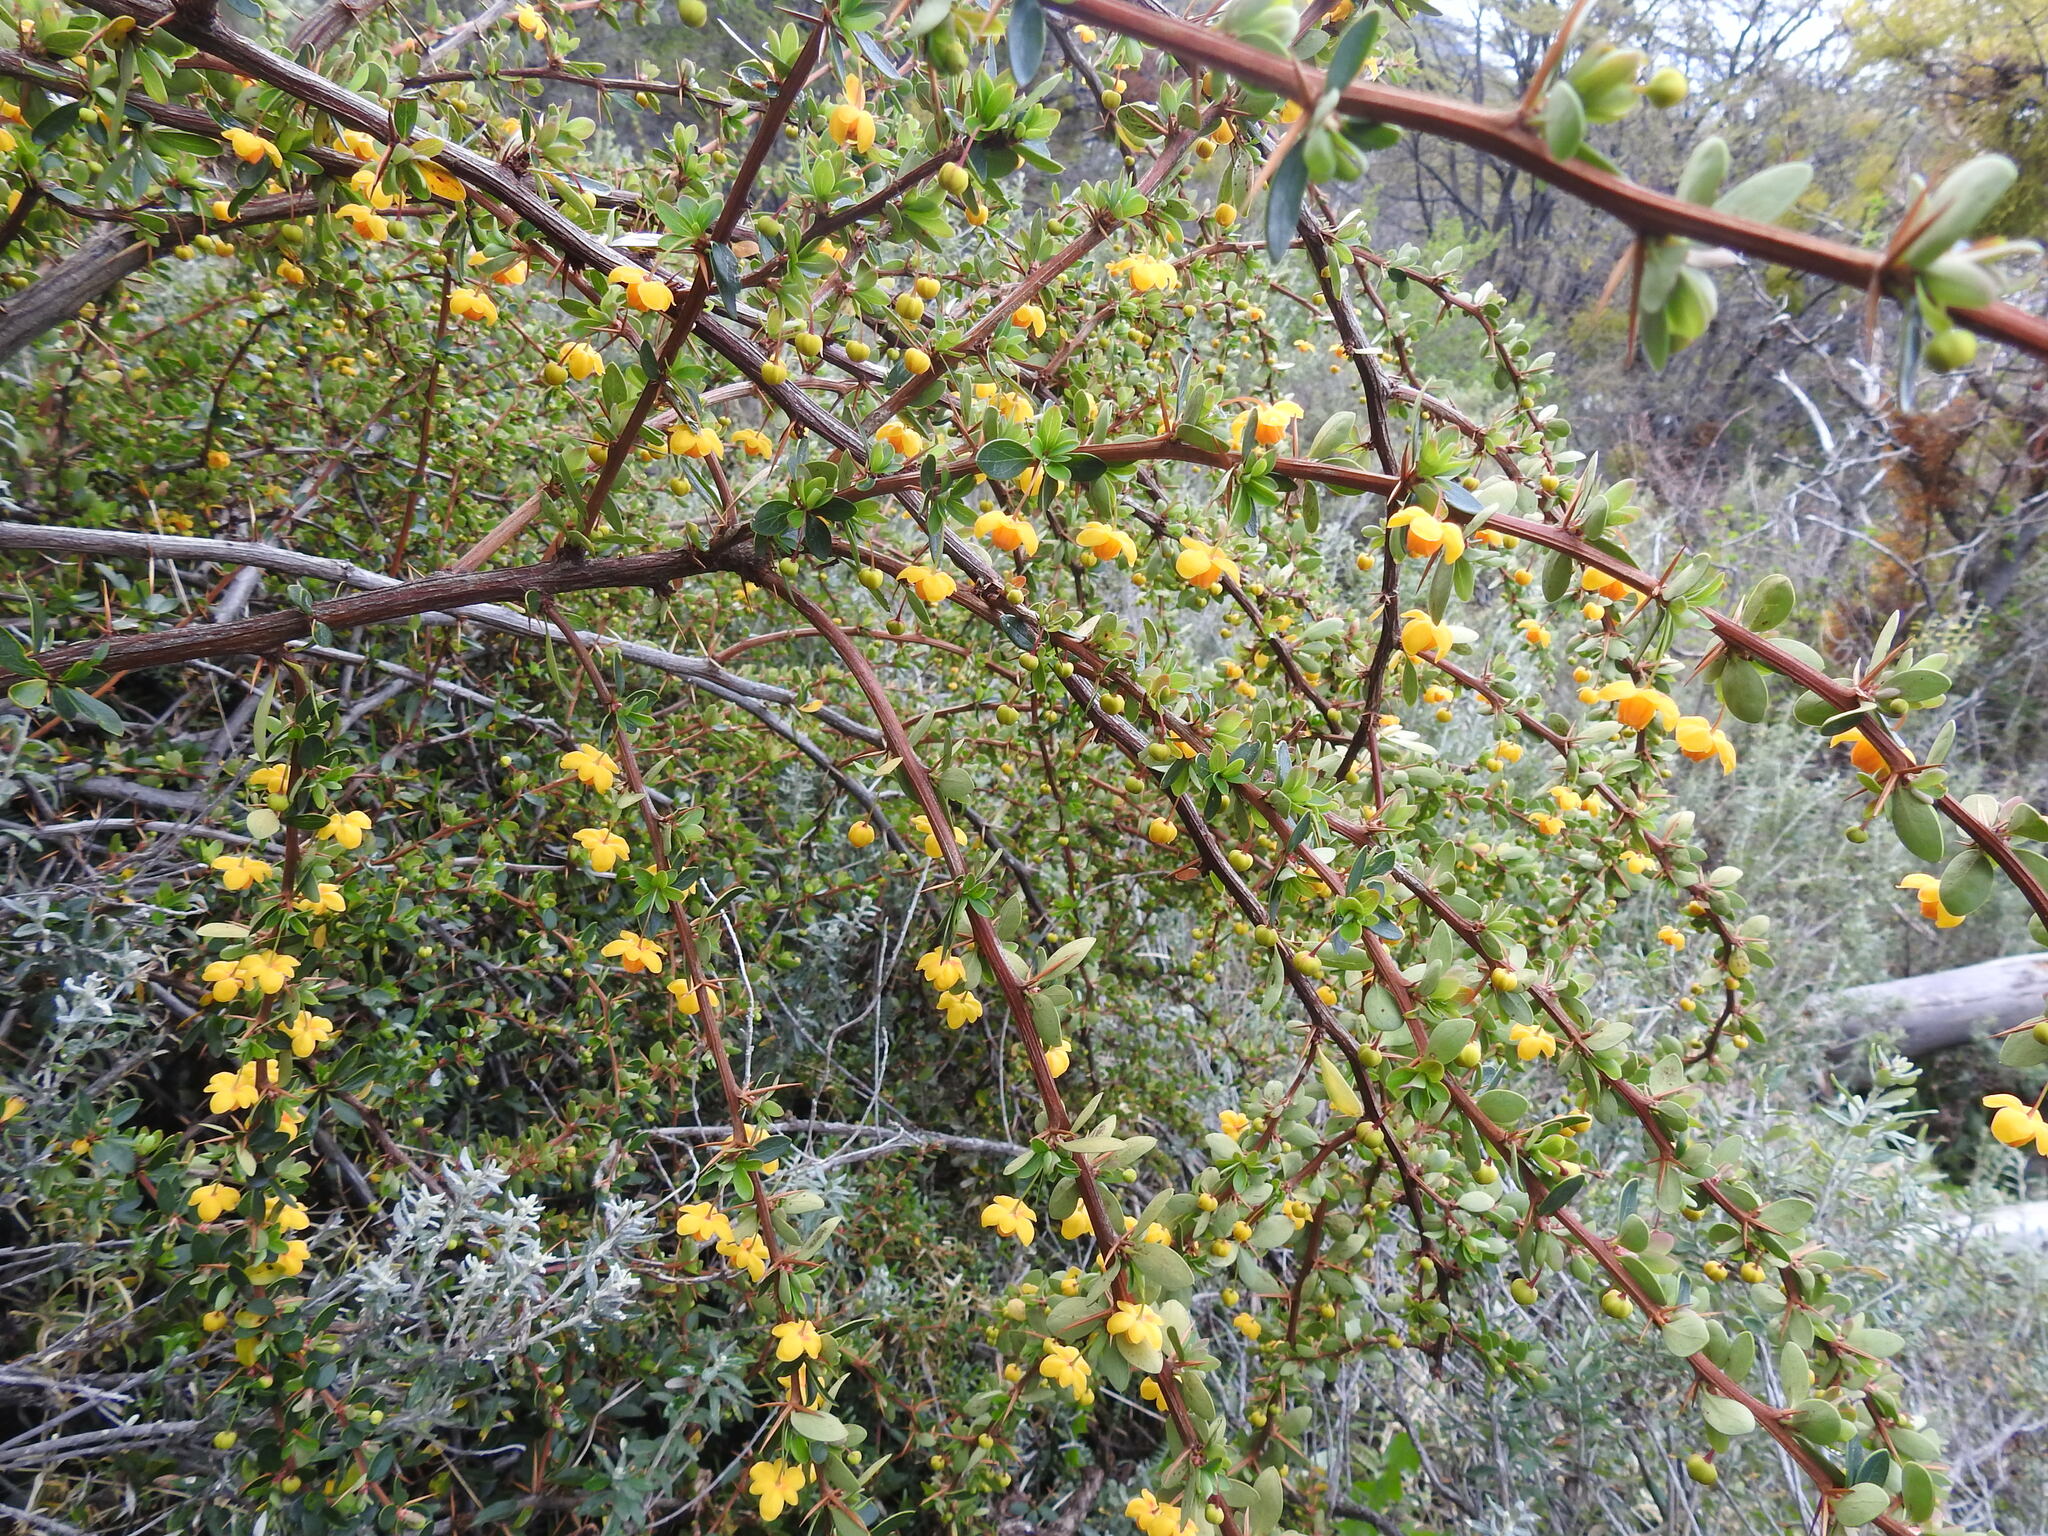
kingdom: Plantae
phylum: Tracheophyta
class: Magnoliopsida
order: Ranunculales
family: Berberidaceae
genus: Berberis
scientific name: Berberis microphylla
